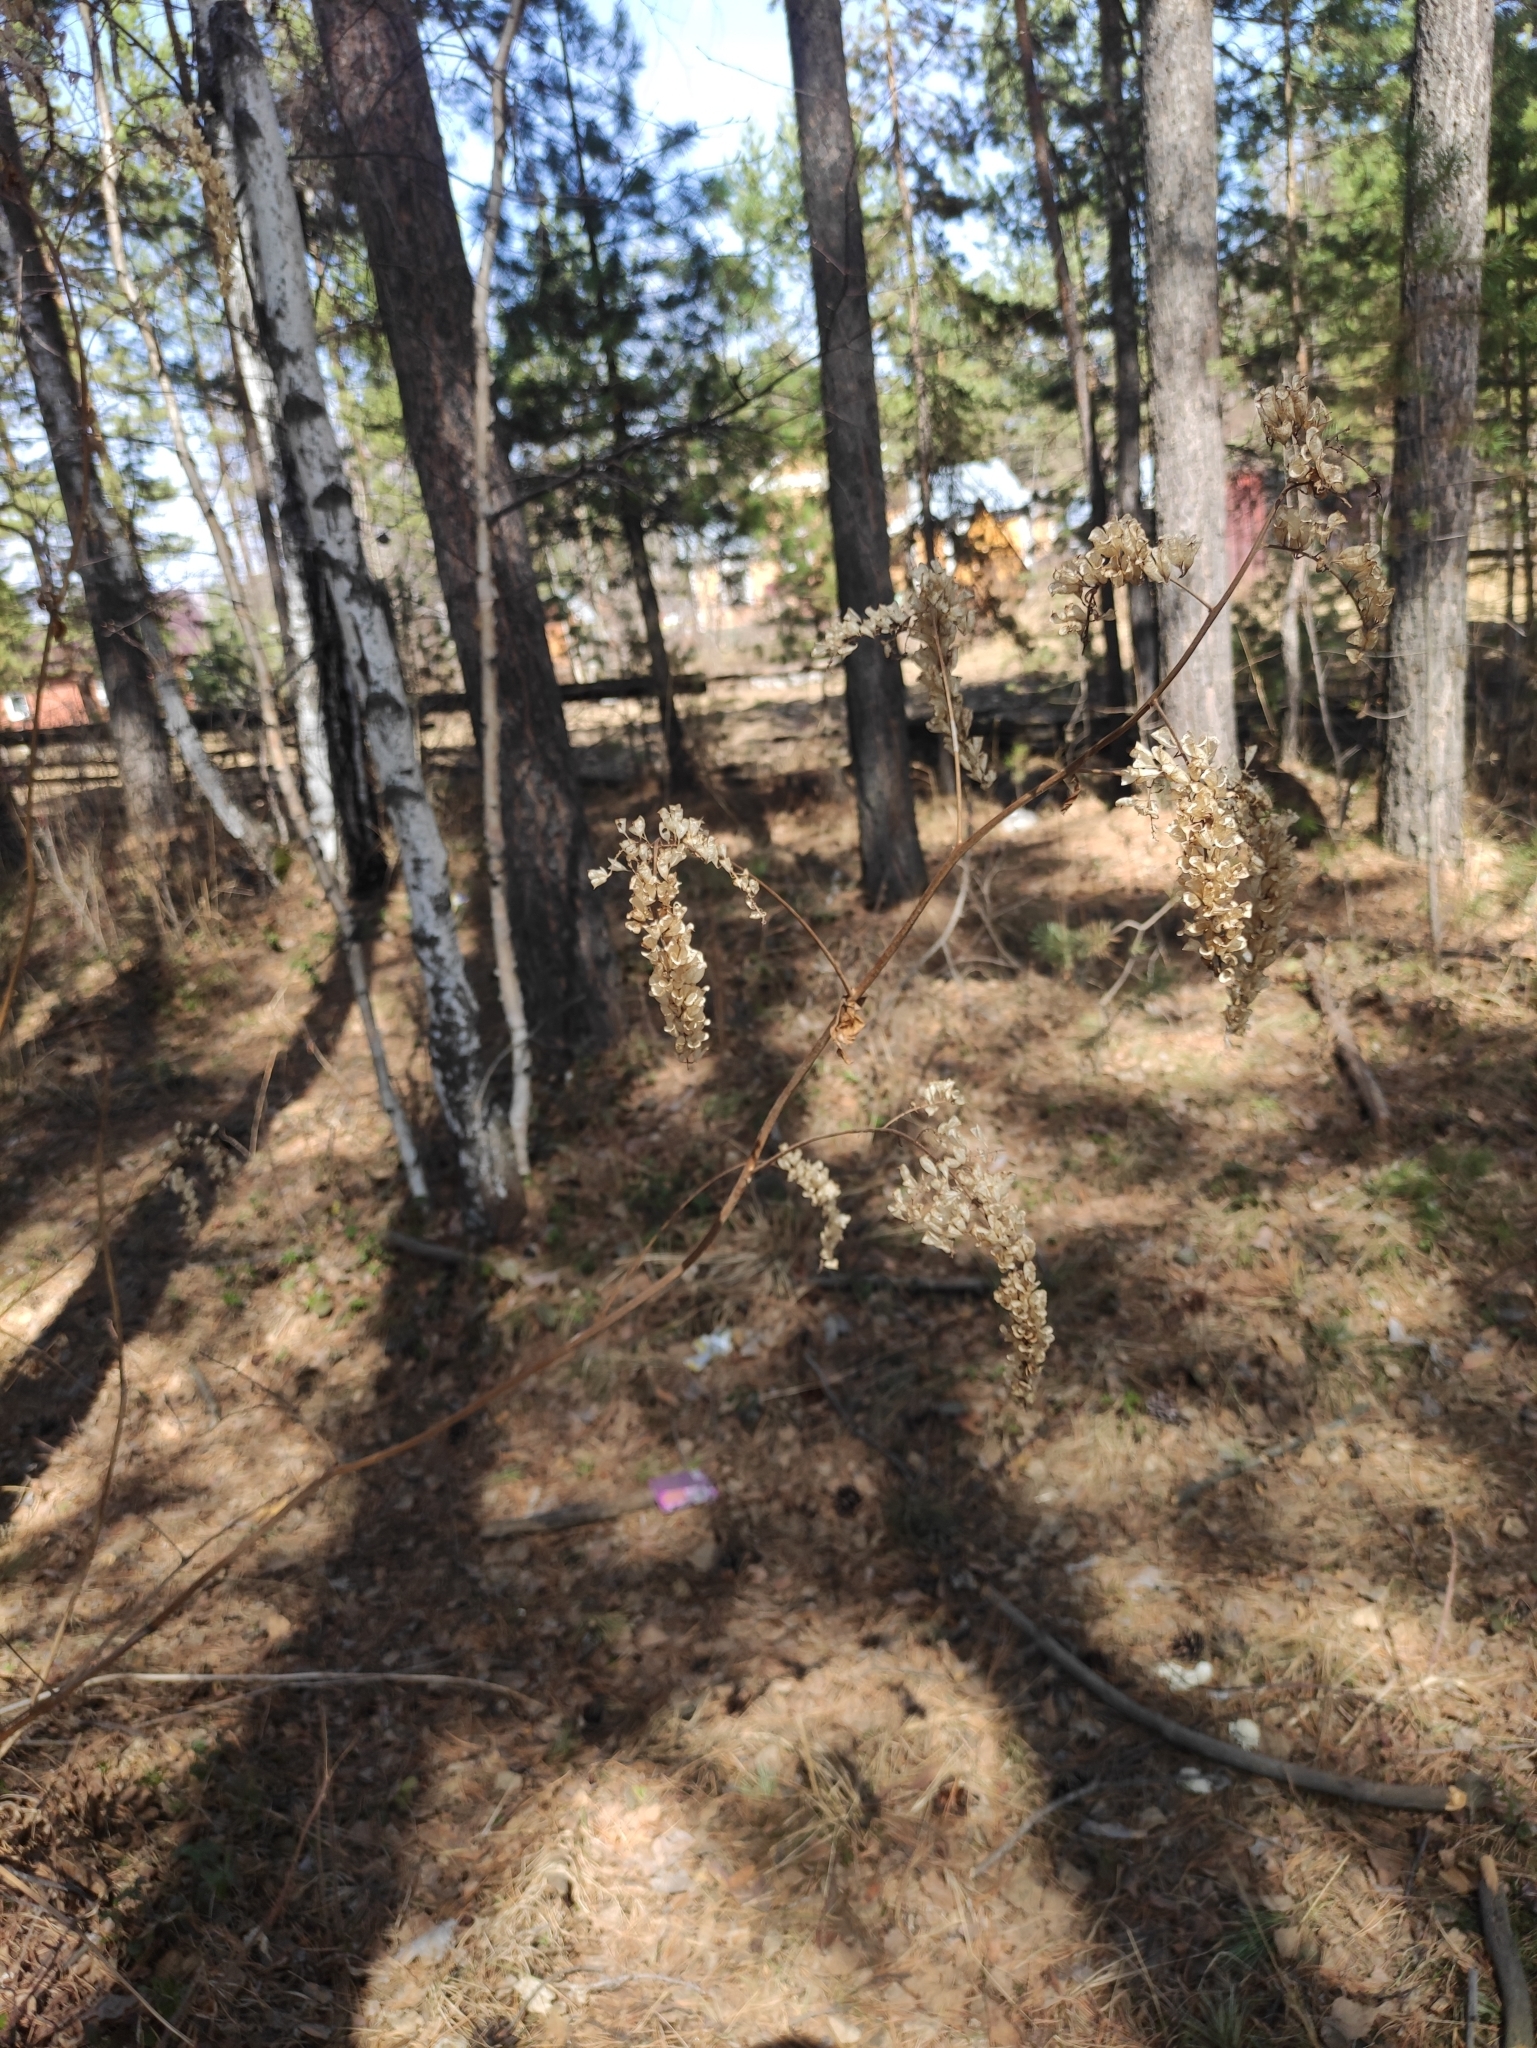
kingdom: Plantae
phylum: Tracheophyta
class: Magnoliopsida
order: Ranunculales
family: Ranunculaceae
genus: Actaea
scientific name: Actaea cimicifuga
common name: Chinese cimicifuga
